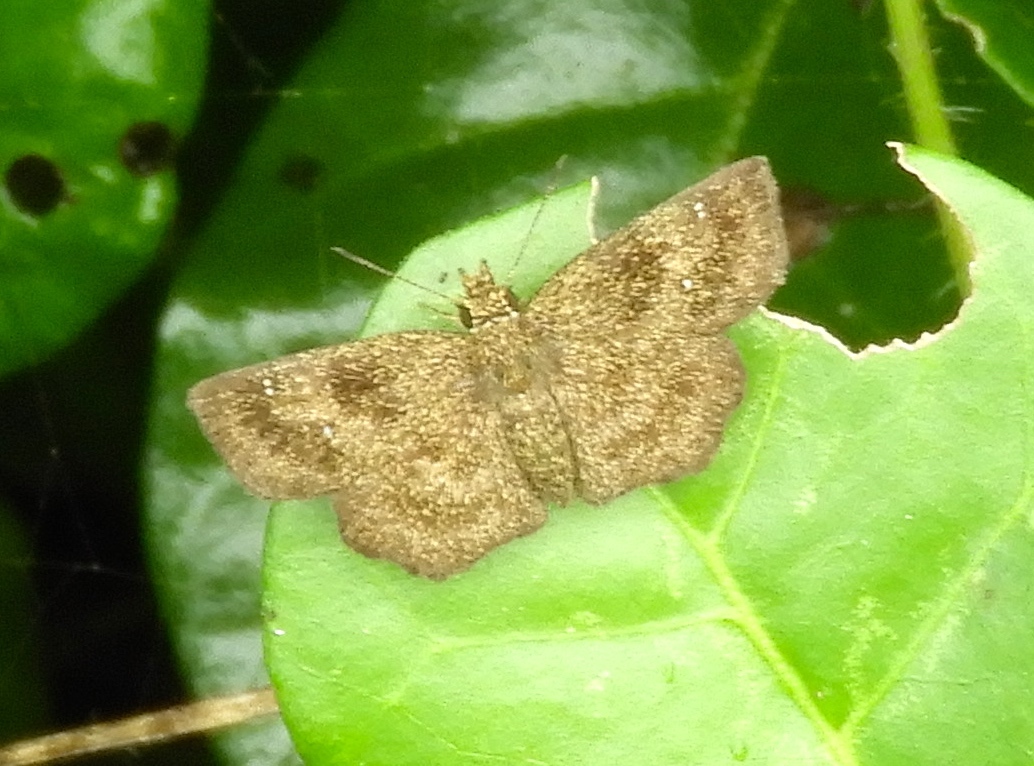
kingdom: Animalia
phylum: Arthropoda
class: Insecta
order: Lepidoptera
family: Hesperiidae
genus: Staphylus
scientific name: Staphylus
